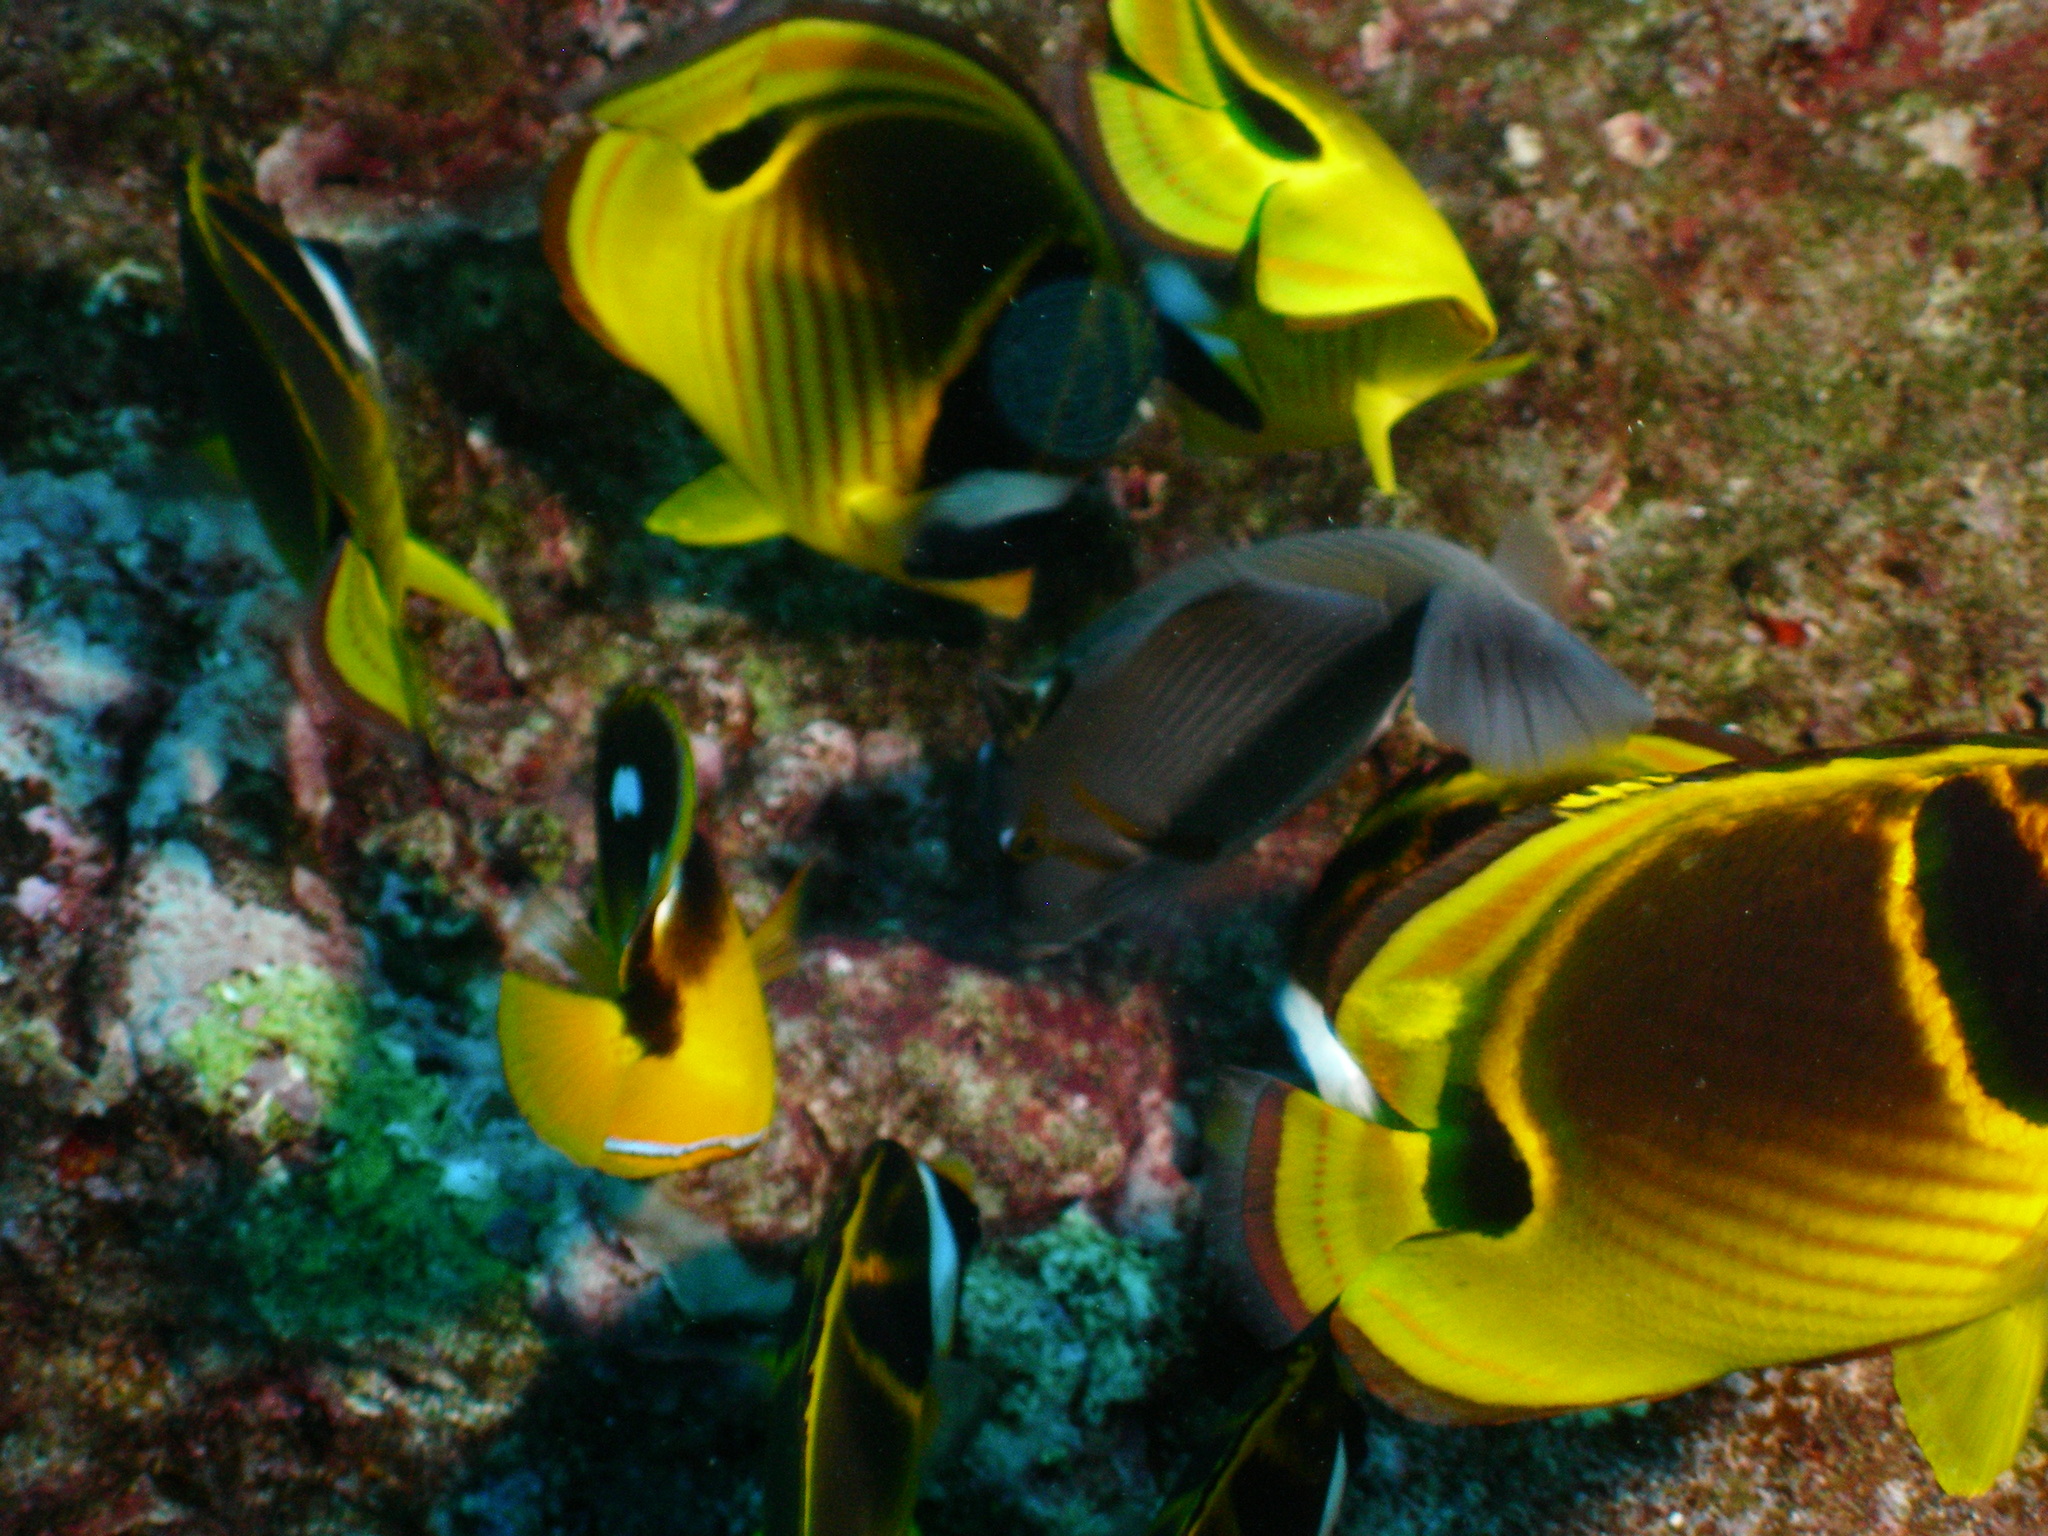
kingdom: Animalia
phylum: Chordata
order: Perciformes
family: Chaetodontidae
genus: Chaetodon
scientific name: Chaetodon lunula
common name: Raccoon butterflyfish
